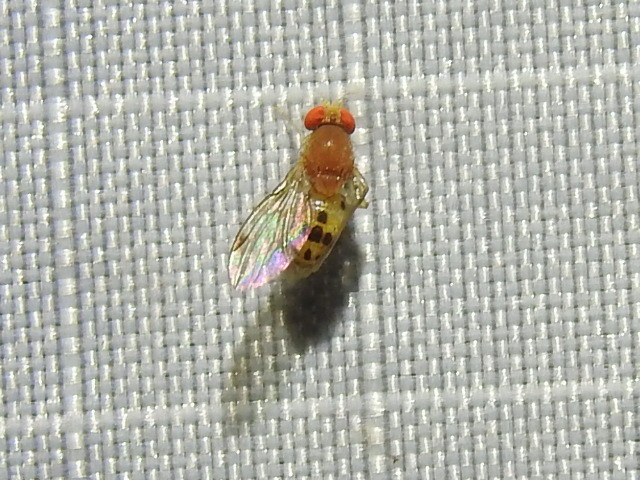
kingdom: Animalia
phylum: Arthropoda
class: Insecta
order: Diptera
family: Drosophilidae
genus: Leucophenga
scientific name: Leucophenga varia
